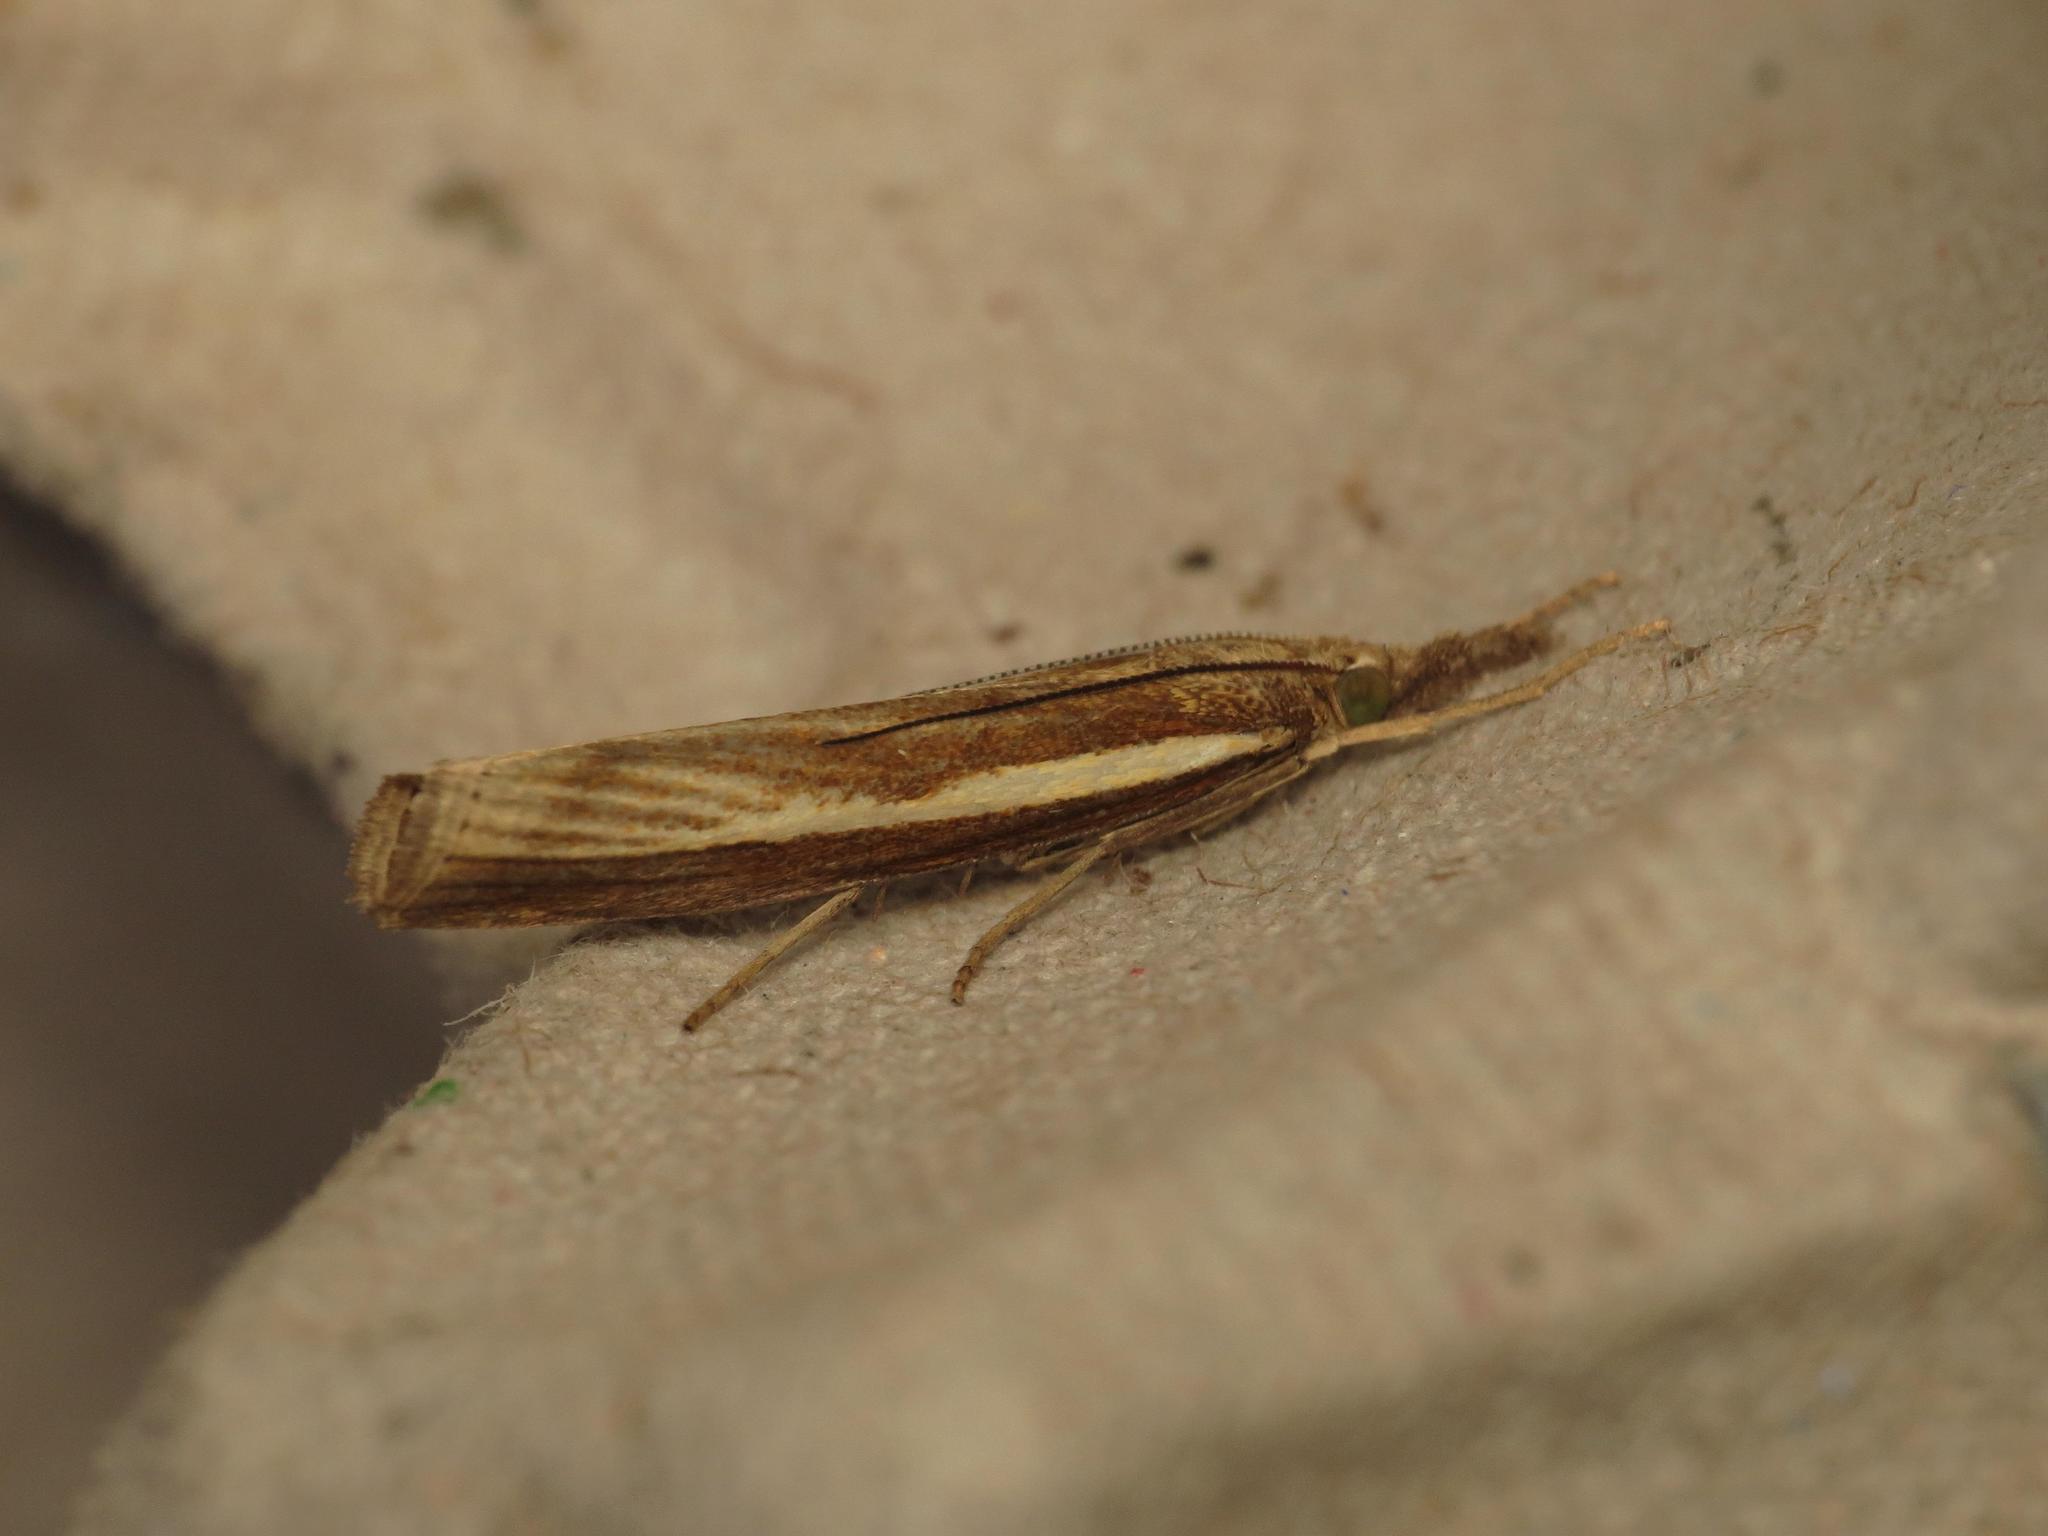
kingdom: Animalia
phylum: Arthropoda
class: Insecta
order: Lepidoptera
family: Crambidae
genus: Agriphila
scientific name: Agriphila tristellus
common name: Common grass-veneer
